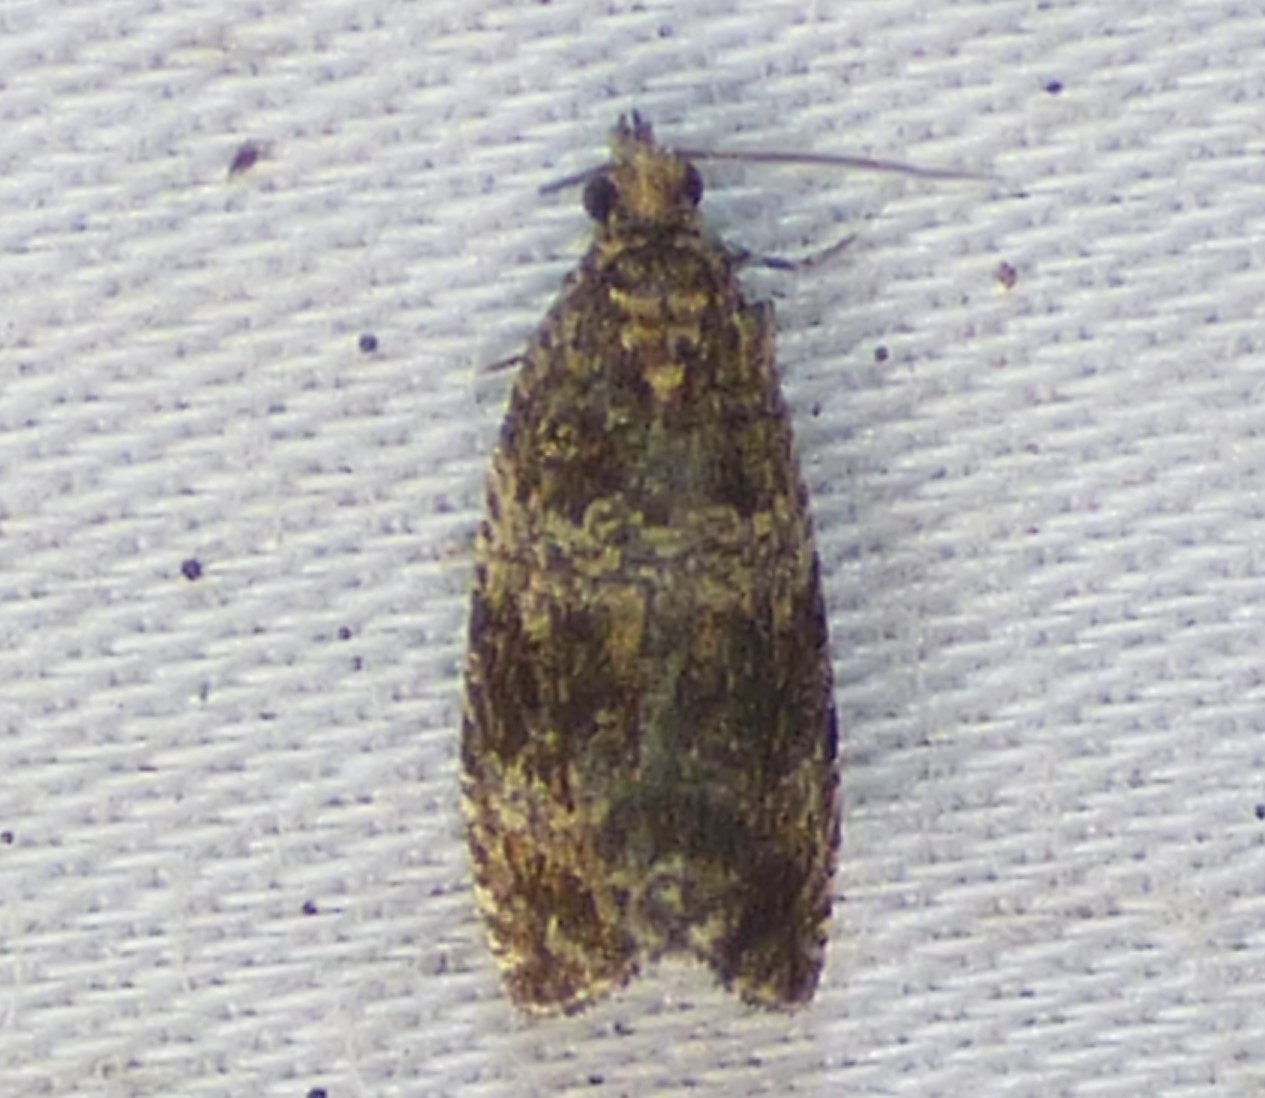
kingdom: Animalia
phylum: Arthropoda
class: Insecta
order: Lepidoptera
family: Tortricidae
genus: Celypha
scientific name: Celypha cespitana
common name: Thyme marble
